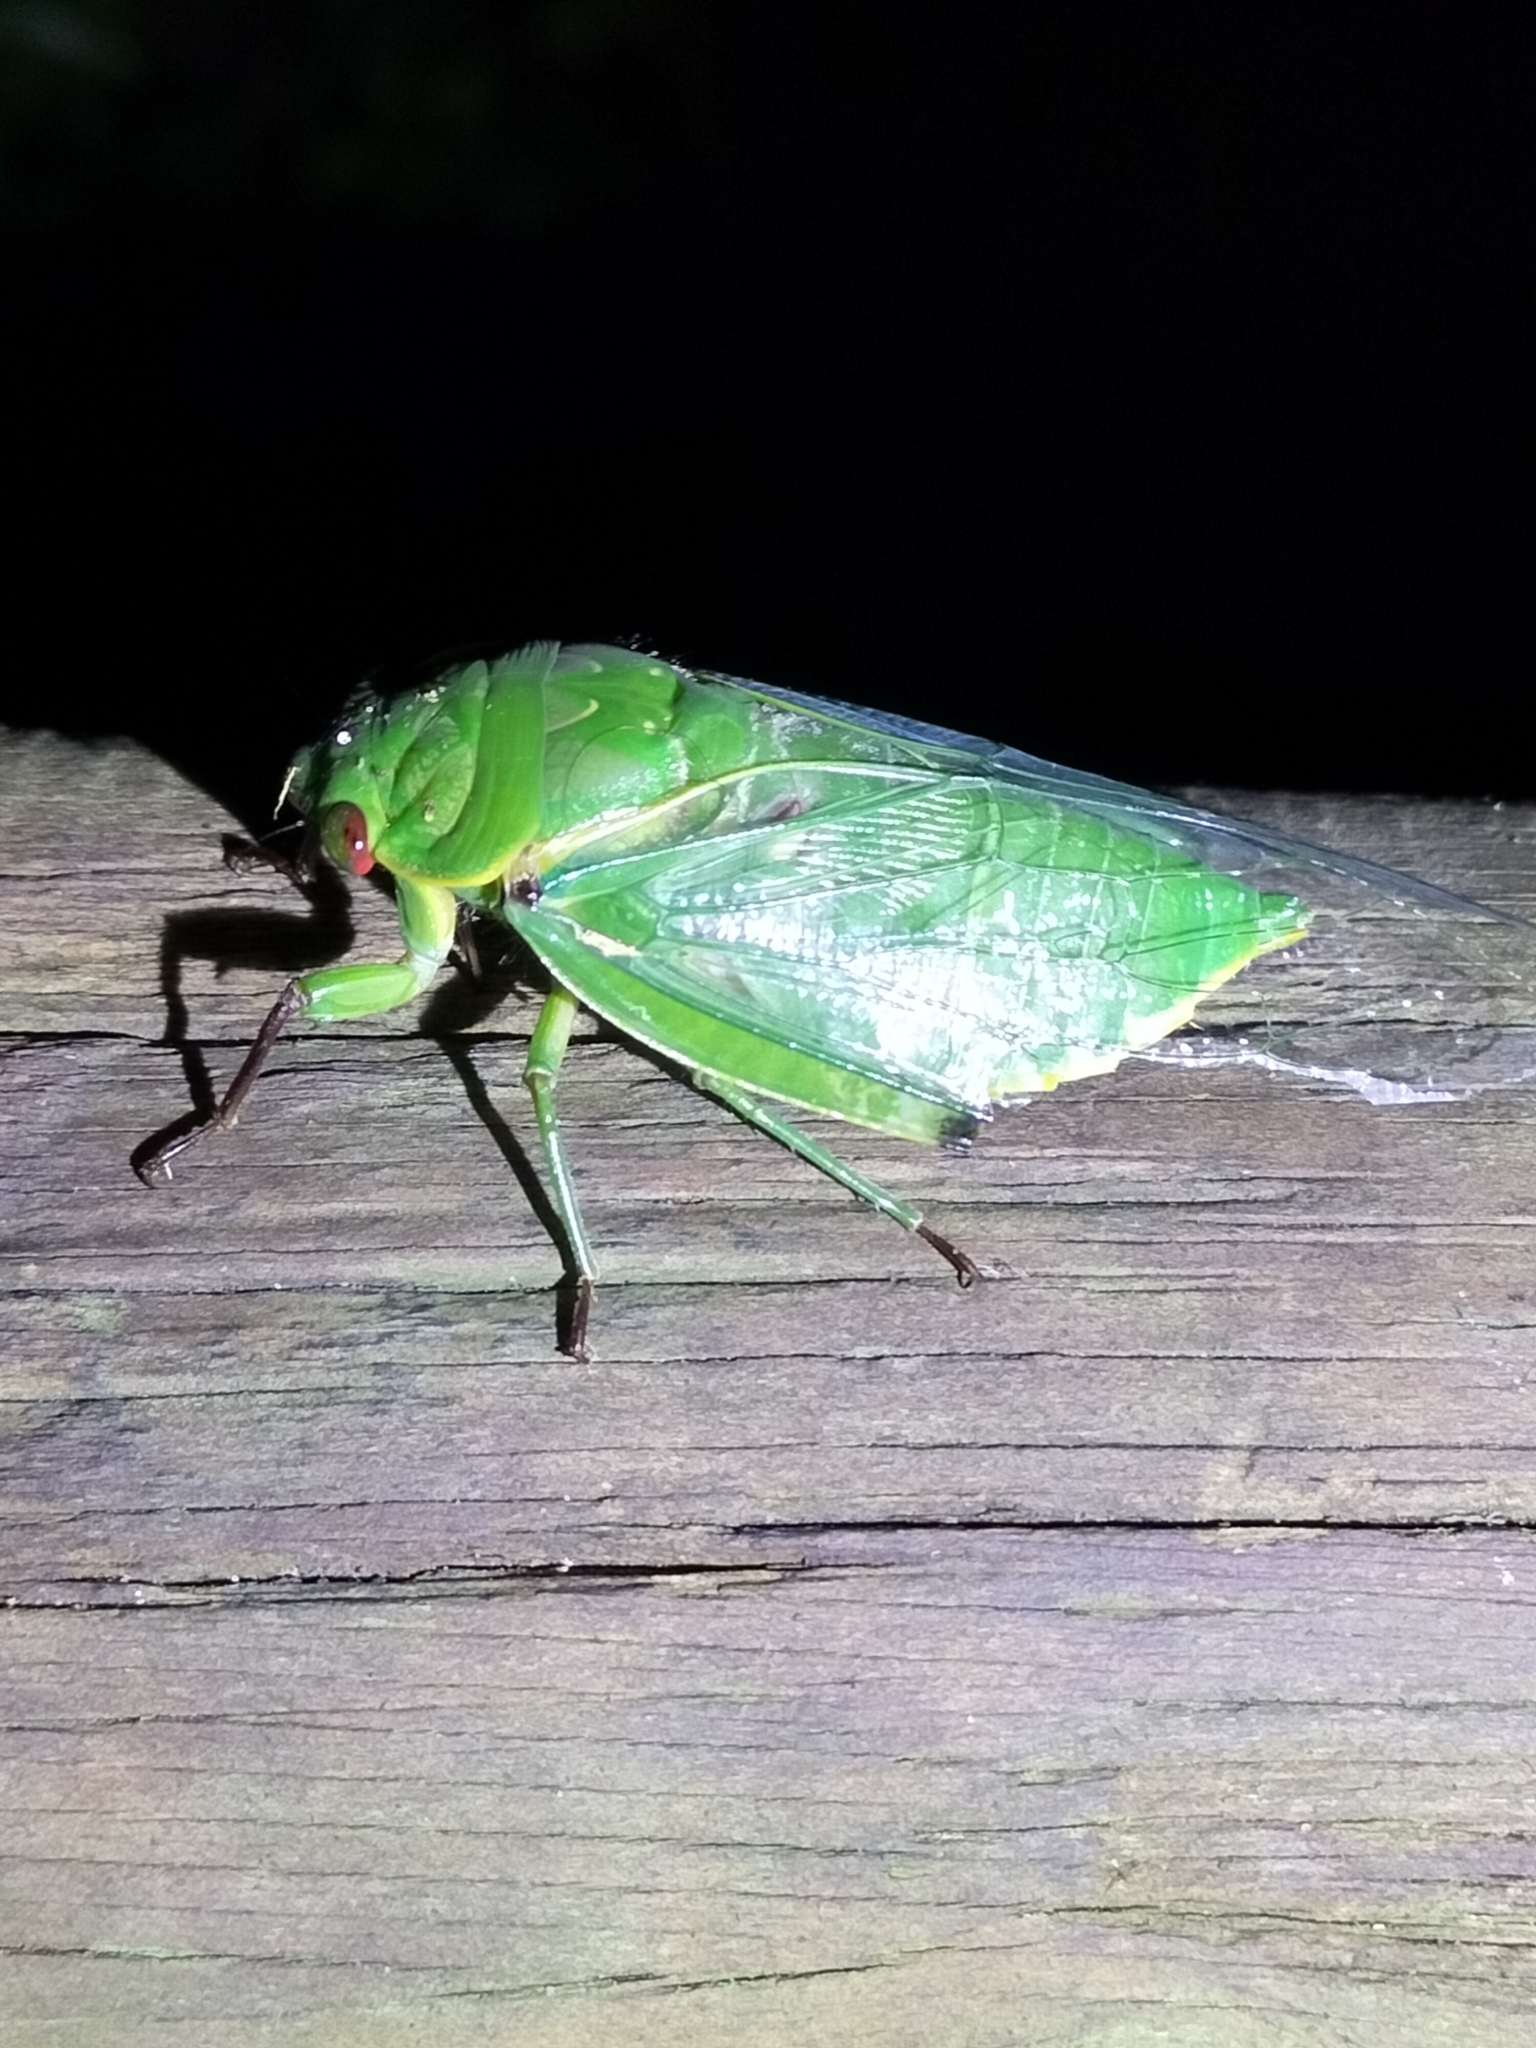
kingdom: Animalia
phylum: Arthropoda
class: Insecta
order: Hemiptera
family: Cicadidae
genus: Cyclochila
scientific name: Cyclochila virens
